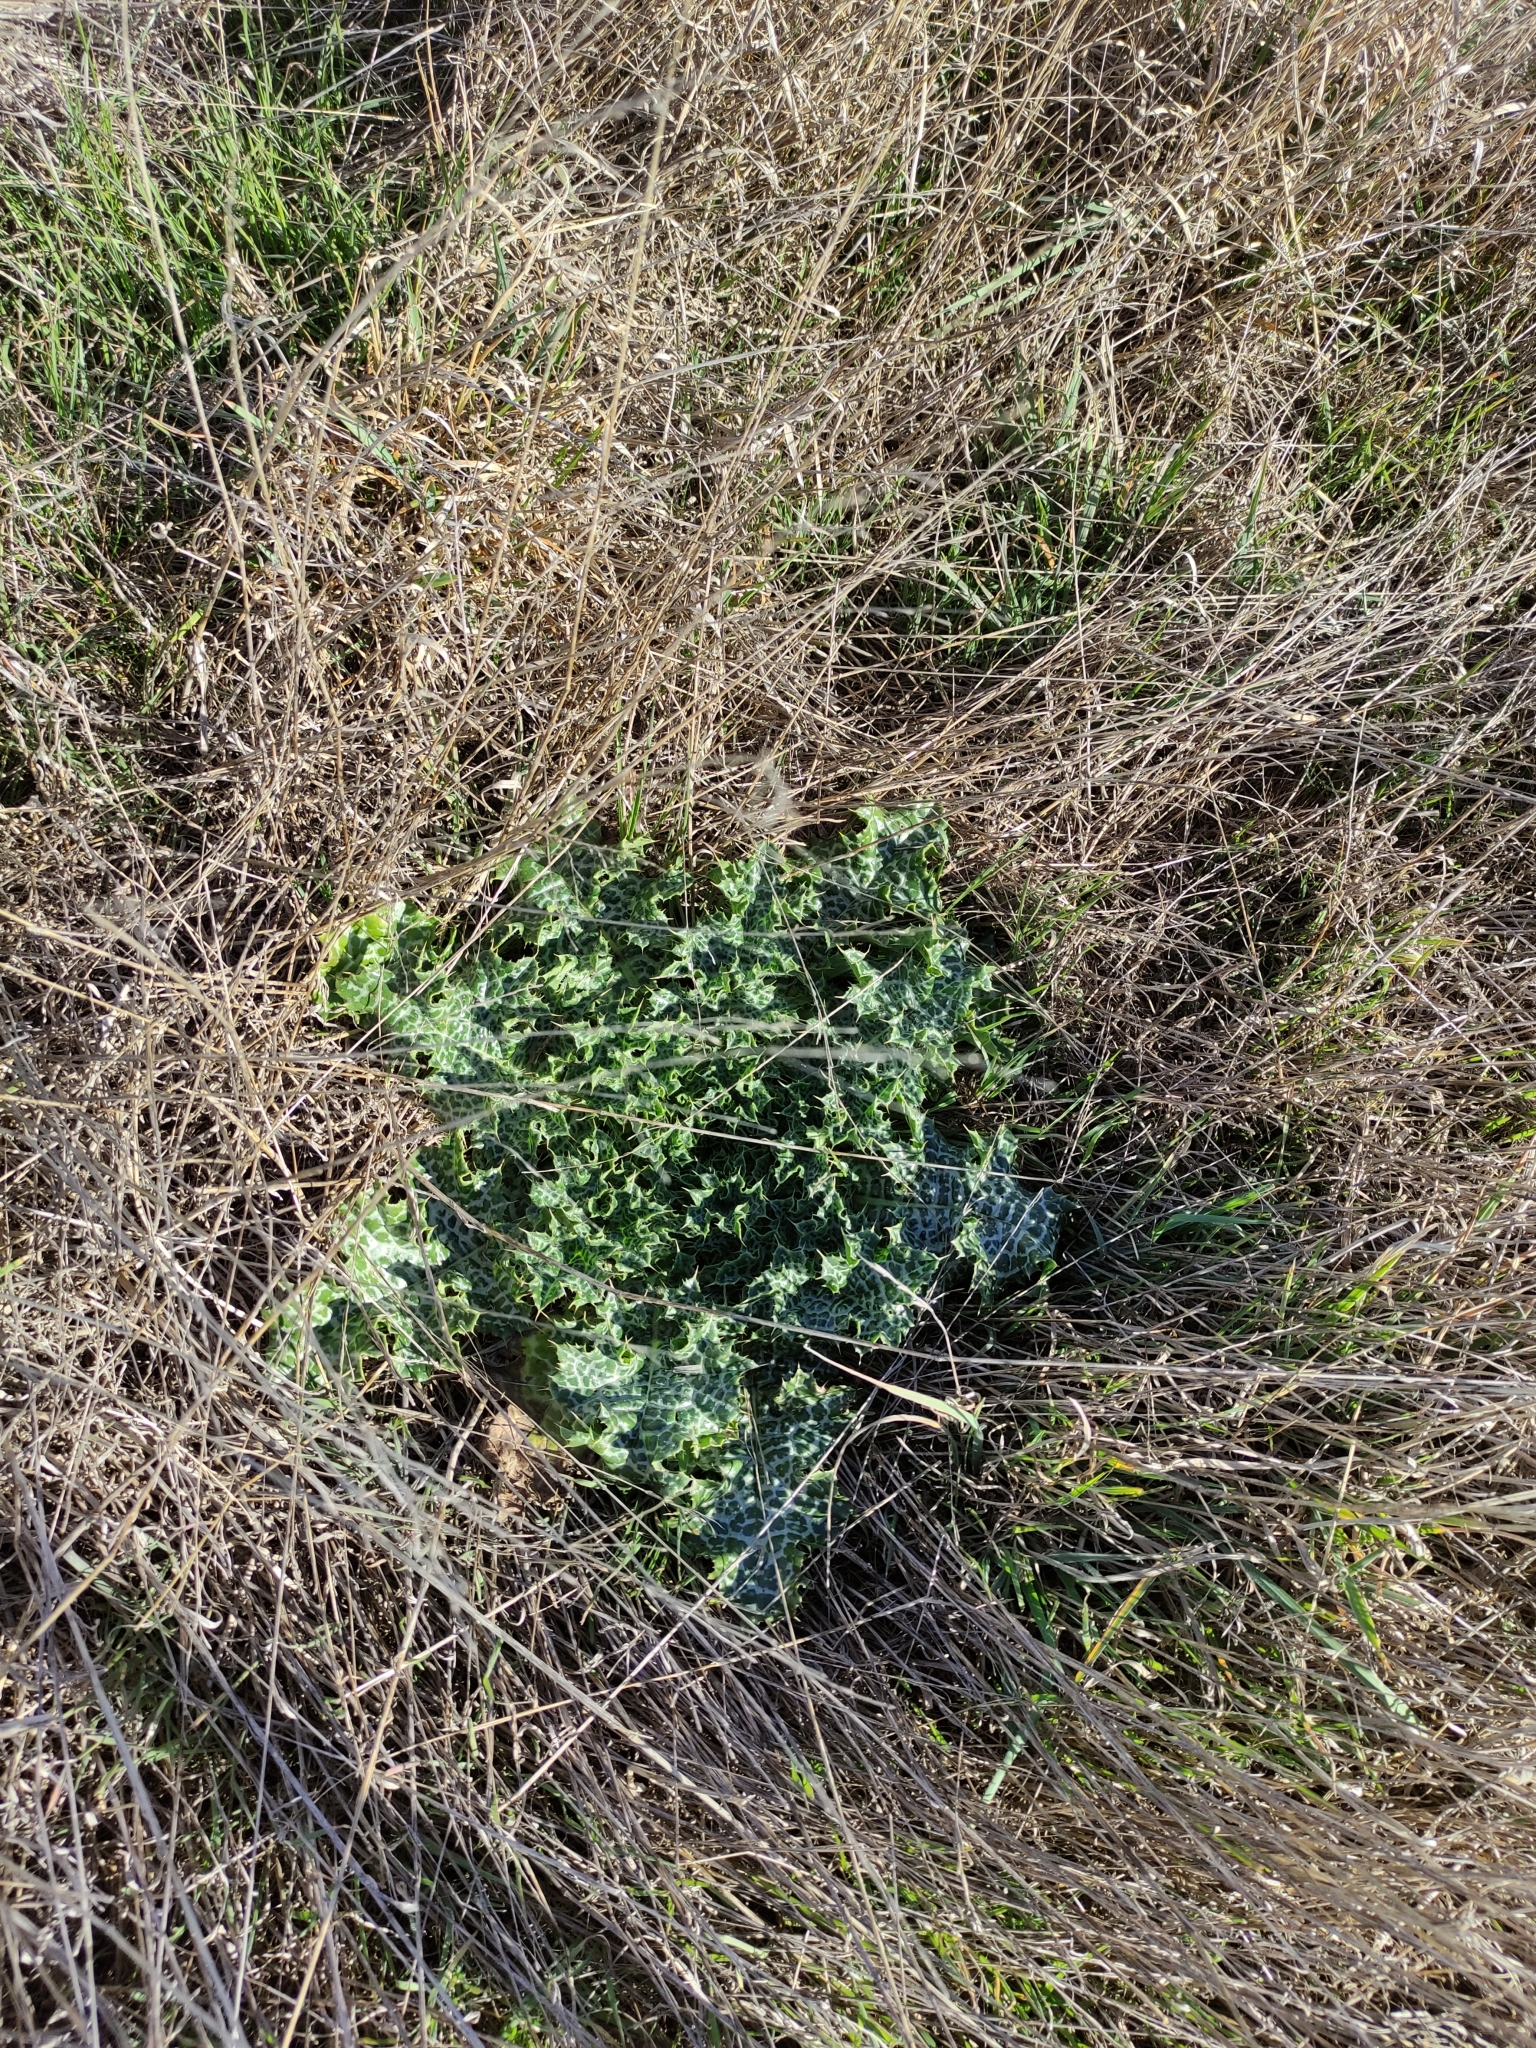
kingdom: Plantae
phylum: Tracheophyta
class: Magnoliopsida
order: Asterales
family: Asteraceae
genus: Silybum
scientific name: Silybum marianum
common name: Milk thistle
